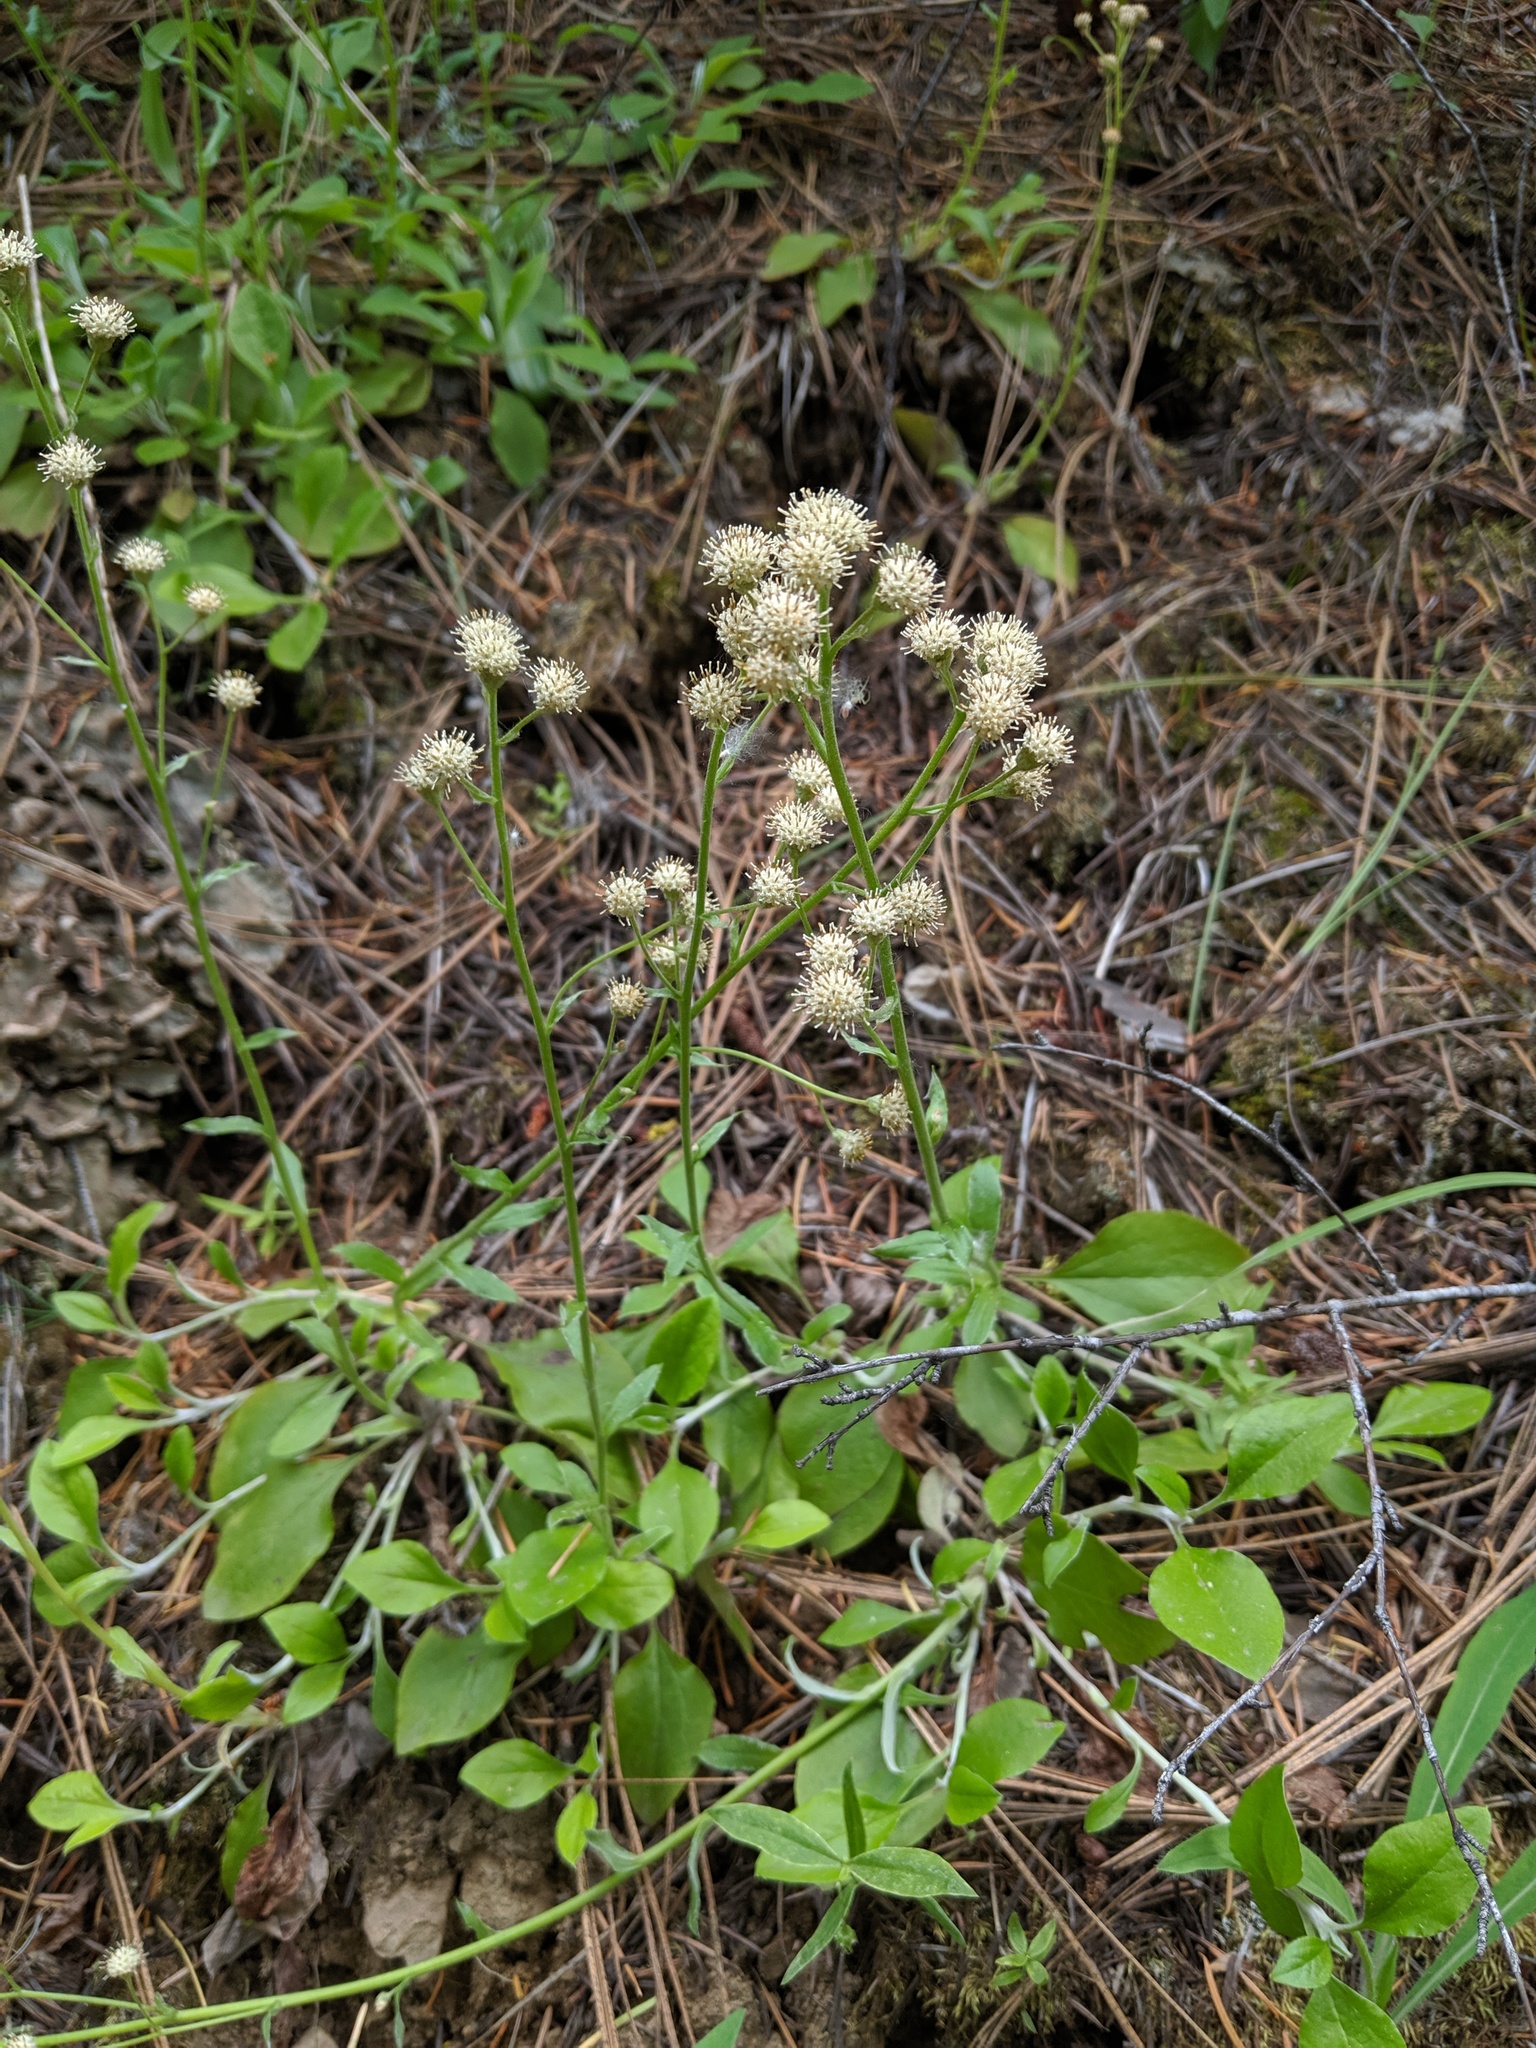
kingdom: Plantae
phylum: Tracheophyta
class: Magnoliopsida
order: Asterales
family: Asteraceae
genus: Antennaria
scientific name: Antennaria racemosa
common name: Racemose pussytoes
